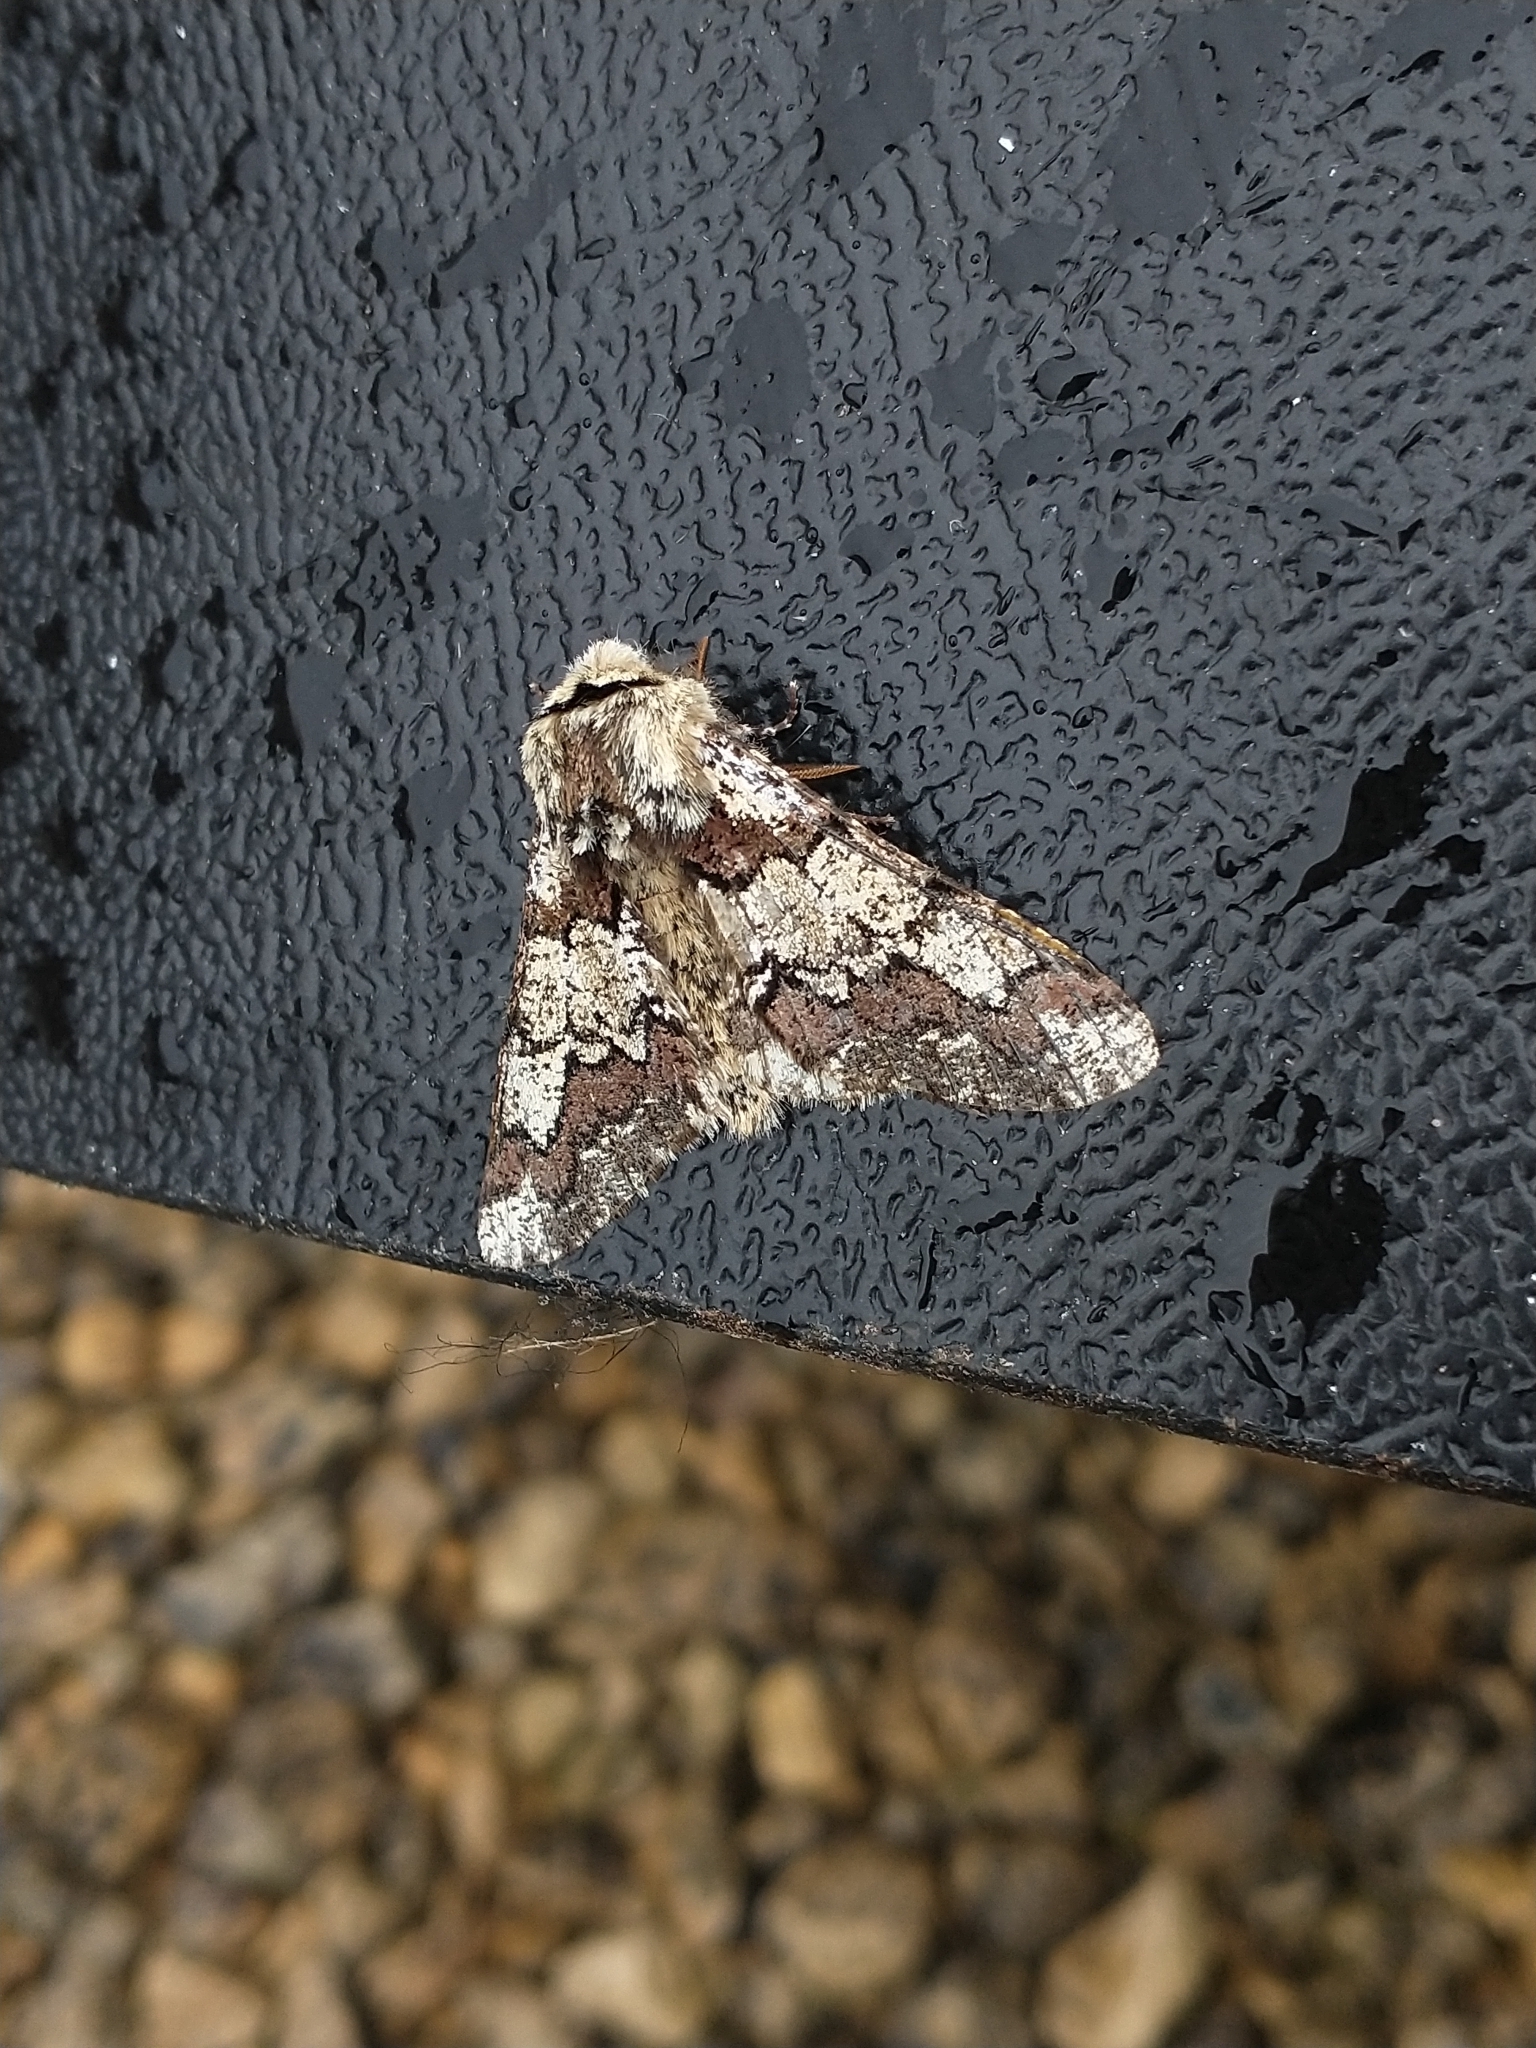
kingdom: Animalia
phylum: Arthropoda
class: Insecta
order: Lepidoptera
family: Geometridae
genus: Biston
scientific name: Biston strataria
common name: Oak beauty
